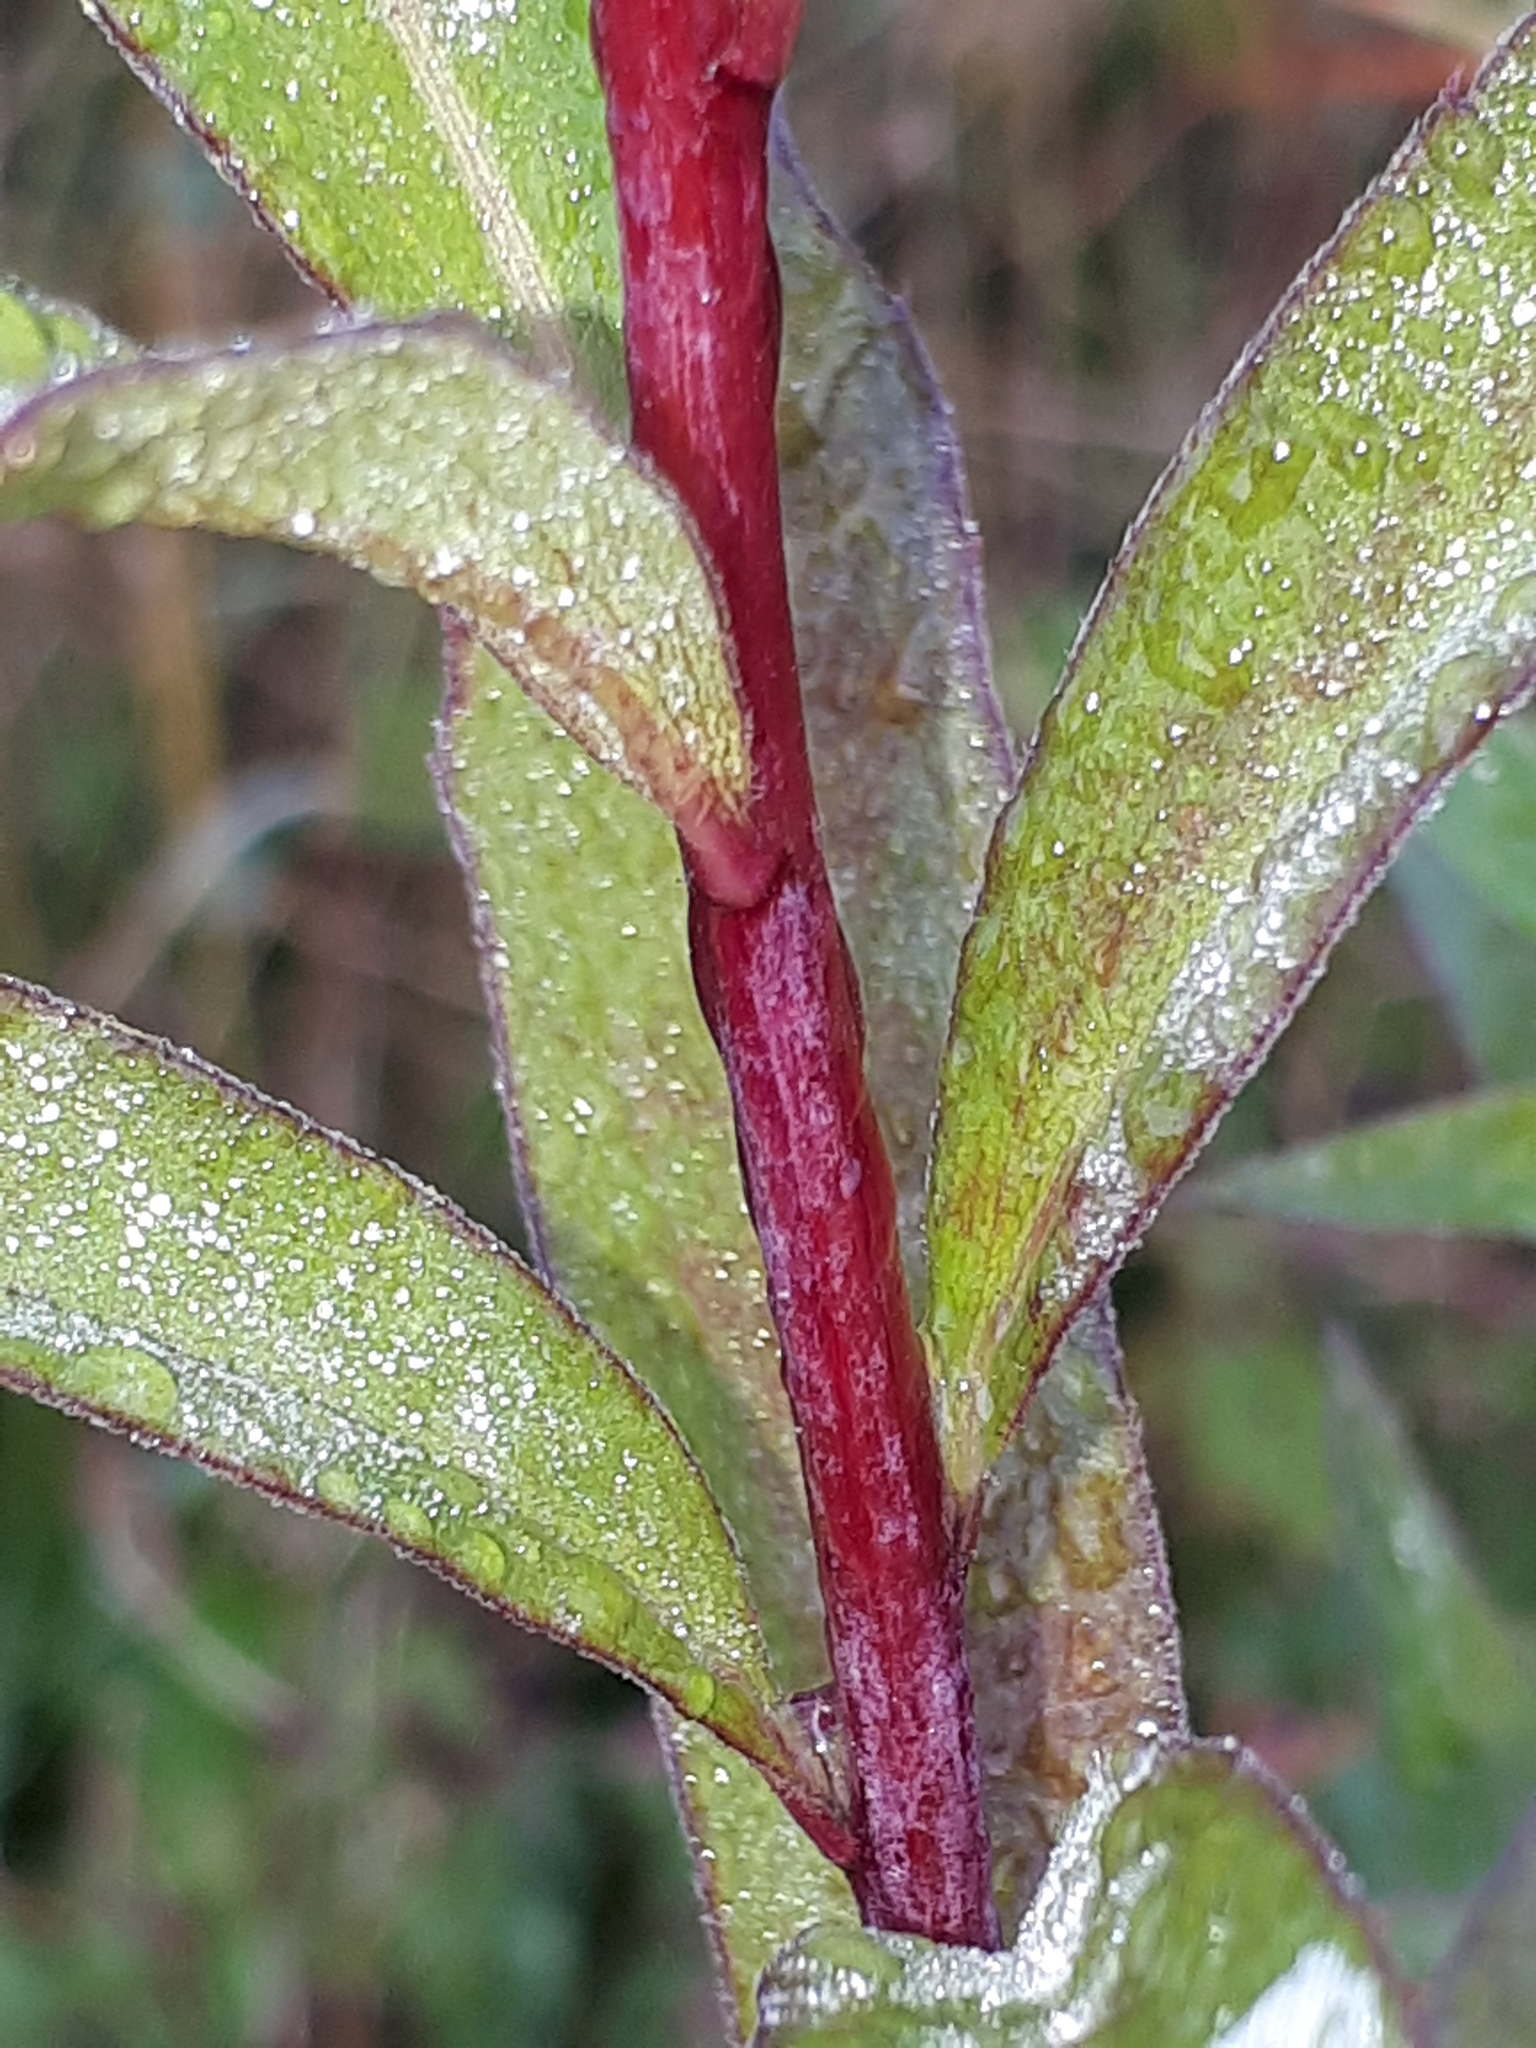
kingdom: Plantae
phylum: Tracheophyta
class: Magnoliopsida
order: Asterales
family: Asteraceae
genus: Solidago
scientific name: Solidago gigantea
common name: Giant goldenrod
